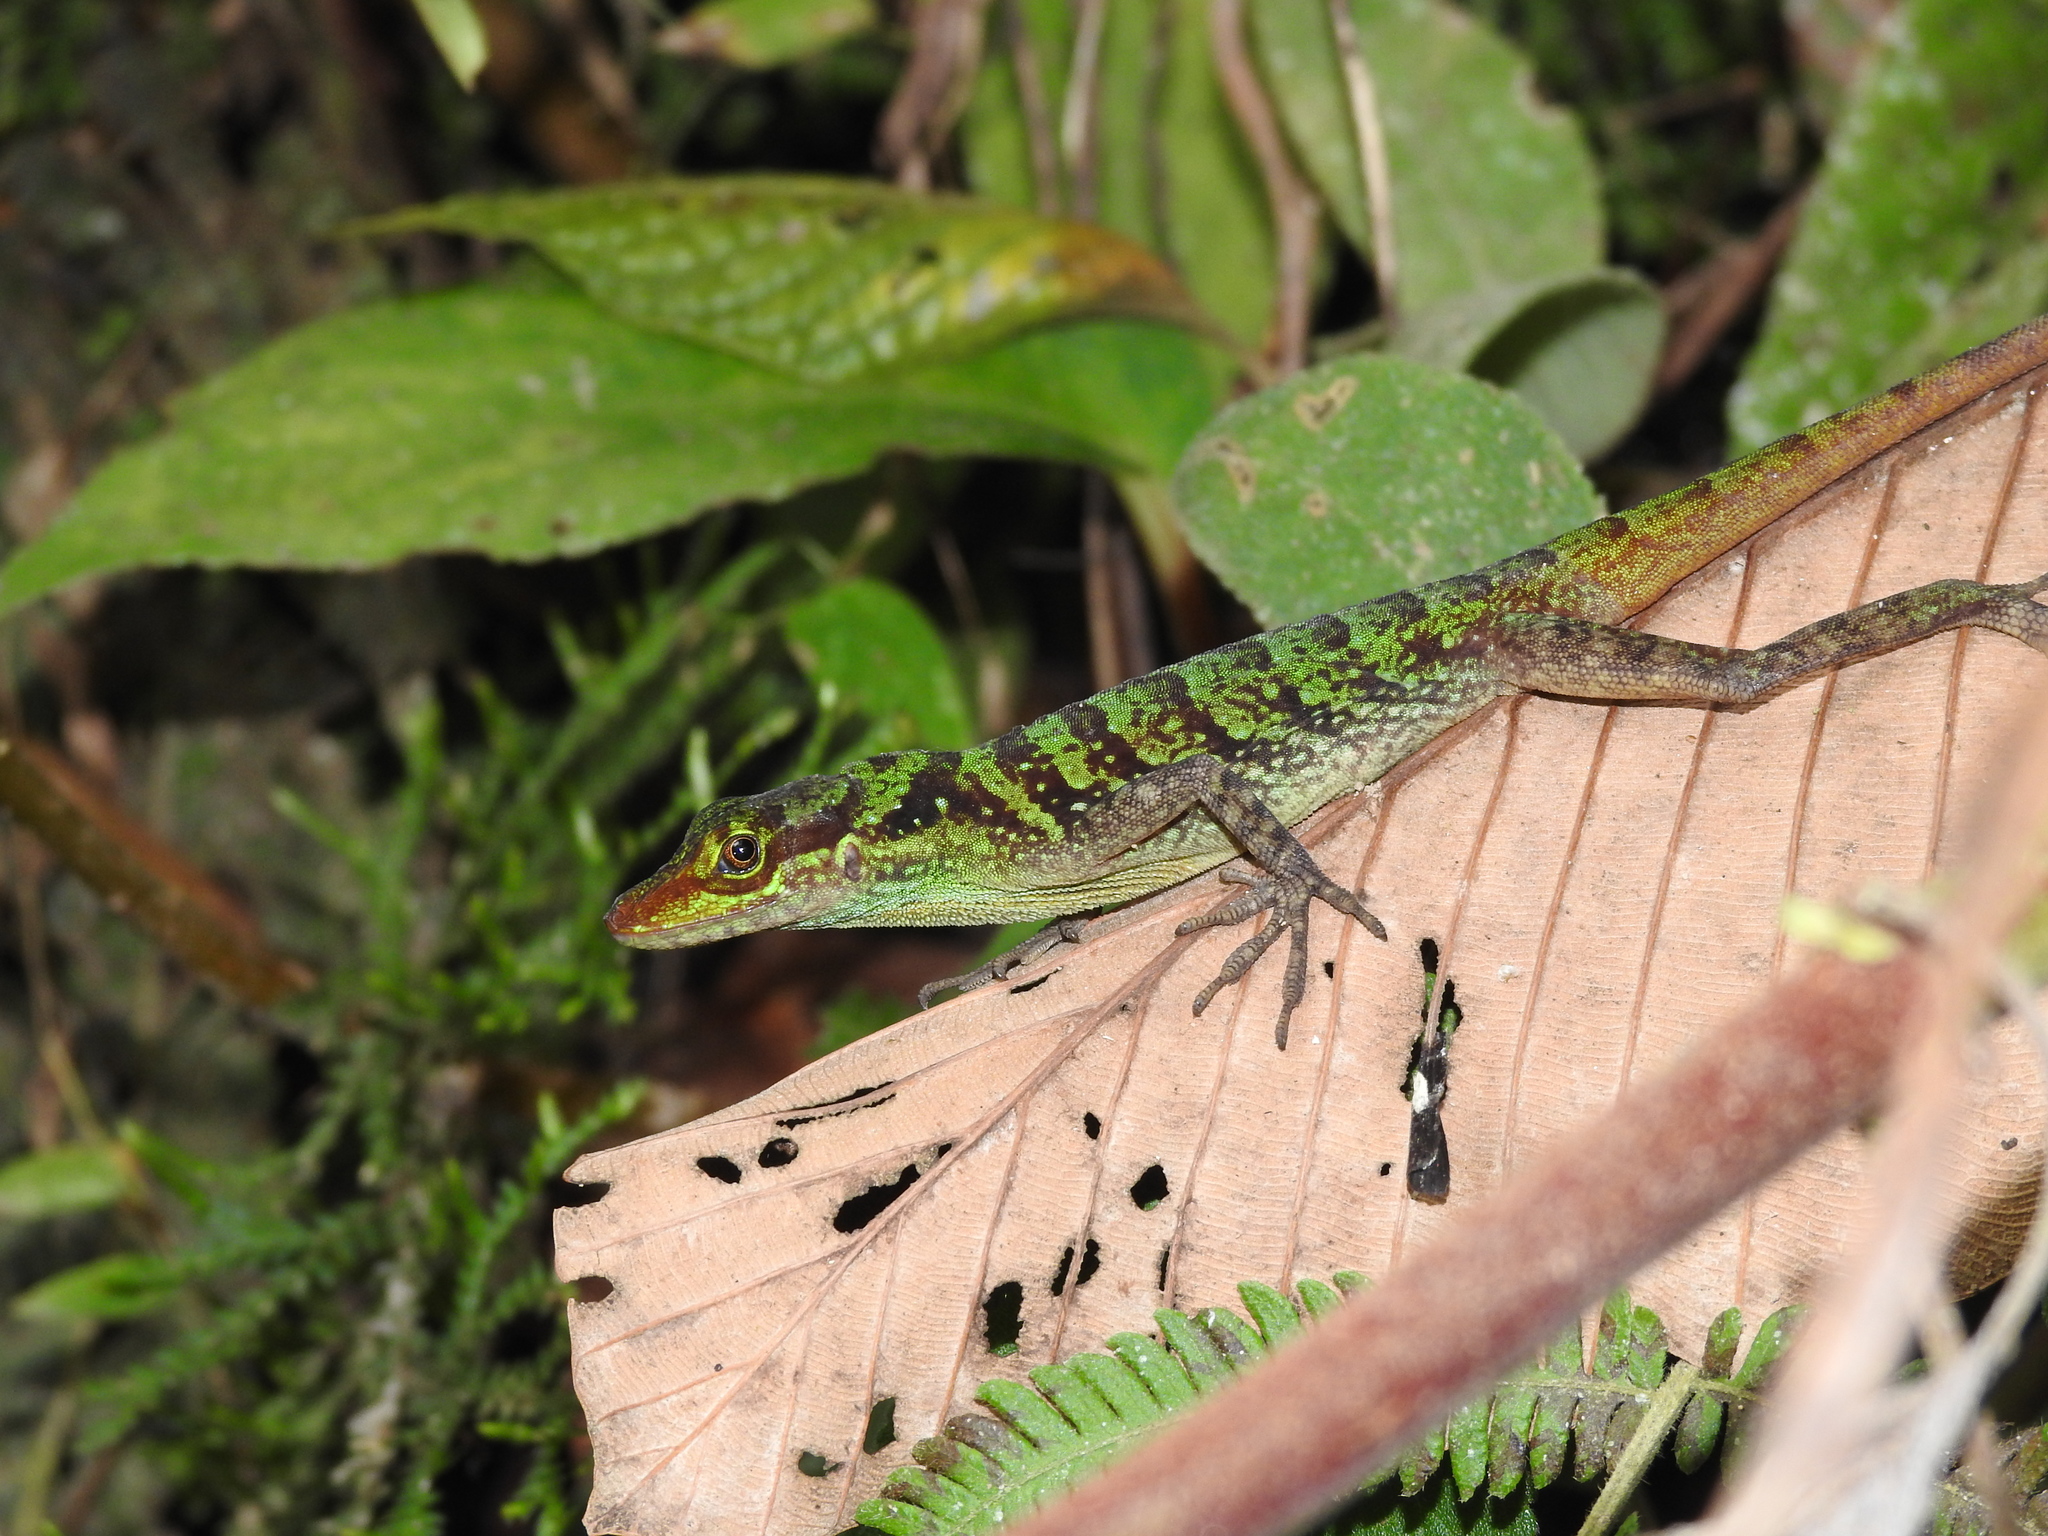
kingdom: Animalia
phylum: Chordata
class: Squamata
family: Dactyloidae
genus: Anolis
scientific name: Anolis ventrimaculatus
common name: Speckled anole
